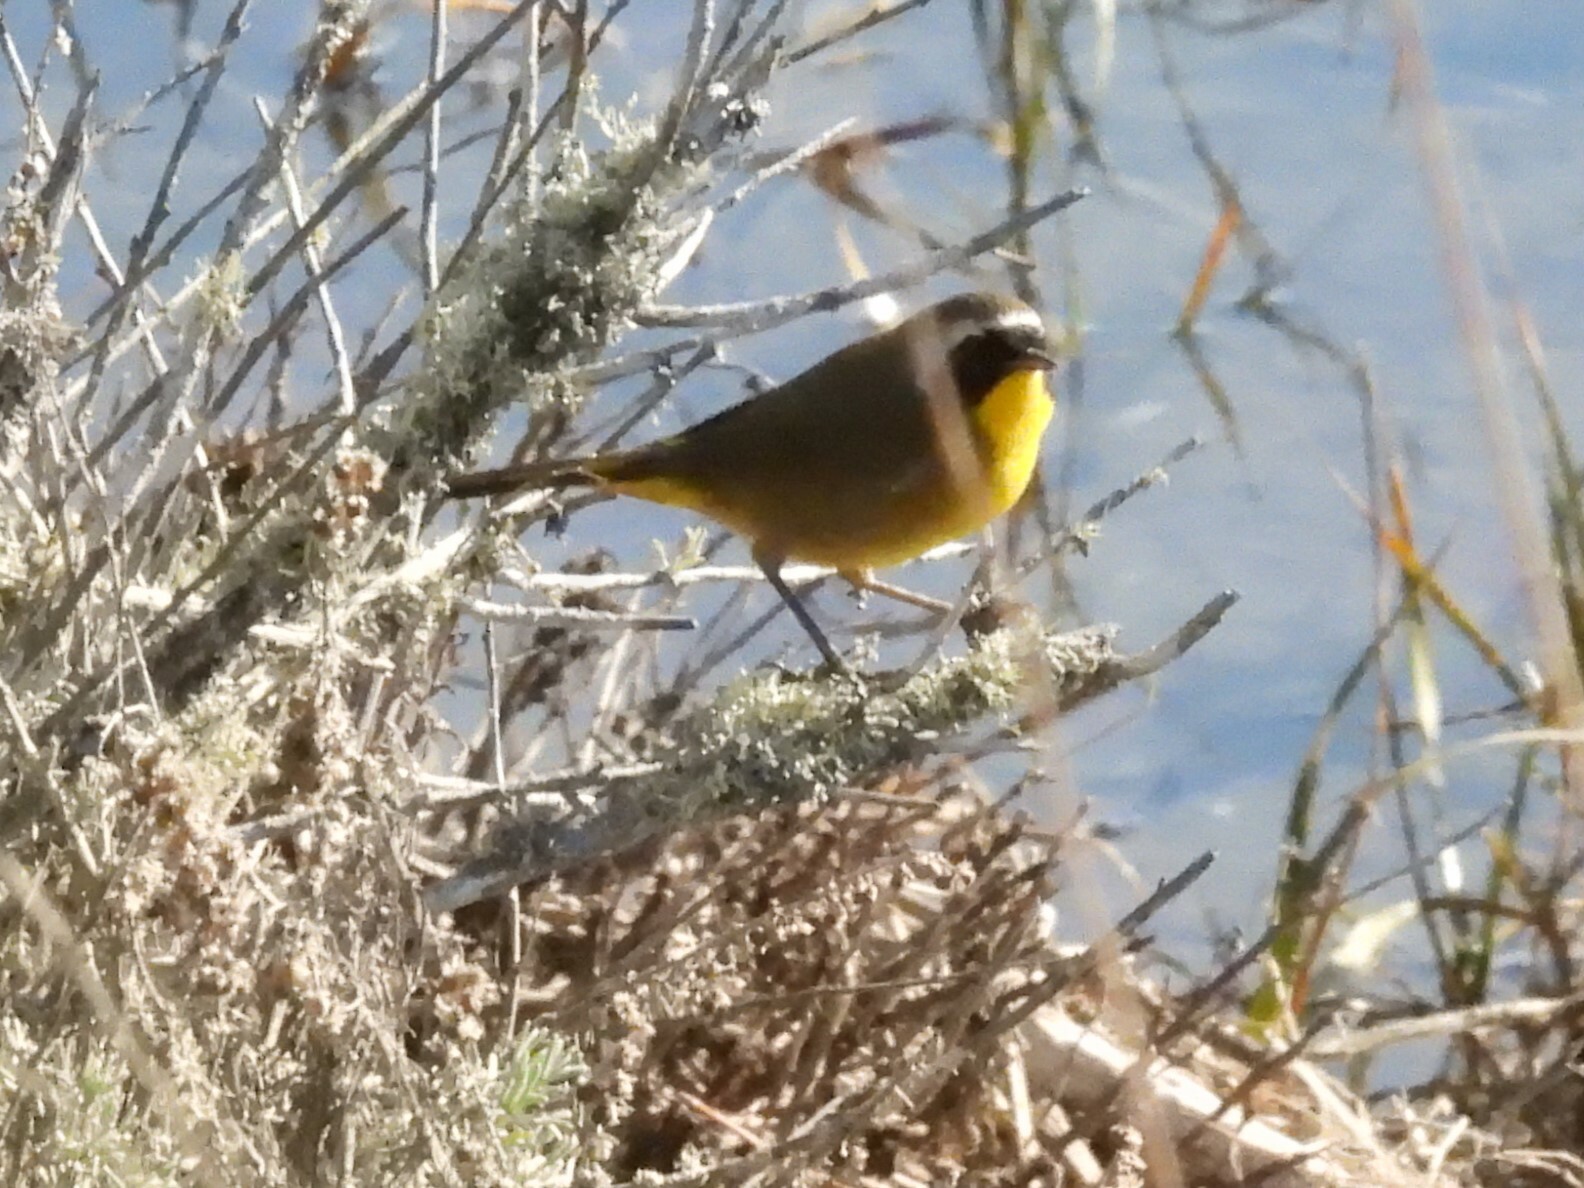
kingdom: Animalia
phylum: Chordata
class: Aves
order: Passeriformes
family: Parulidae
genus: Geothlypis
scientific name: Geothlypis trichas
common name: Common yellowthroat
